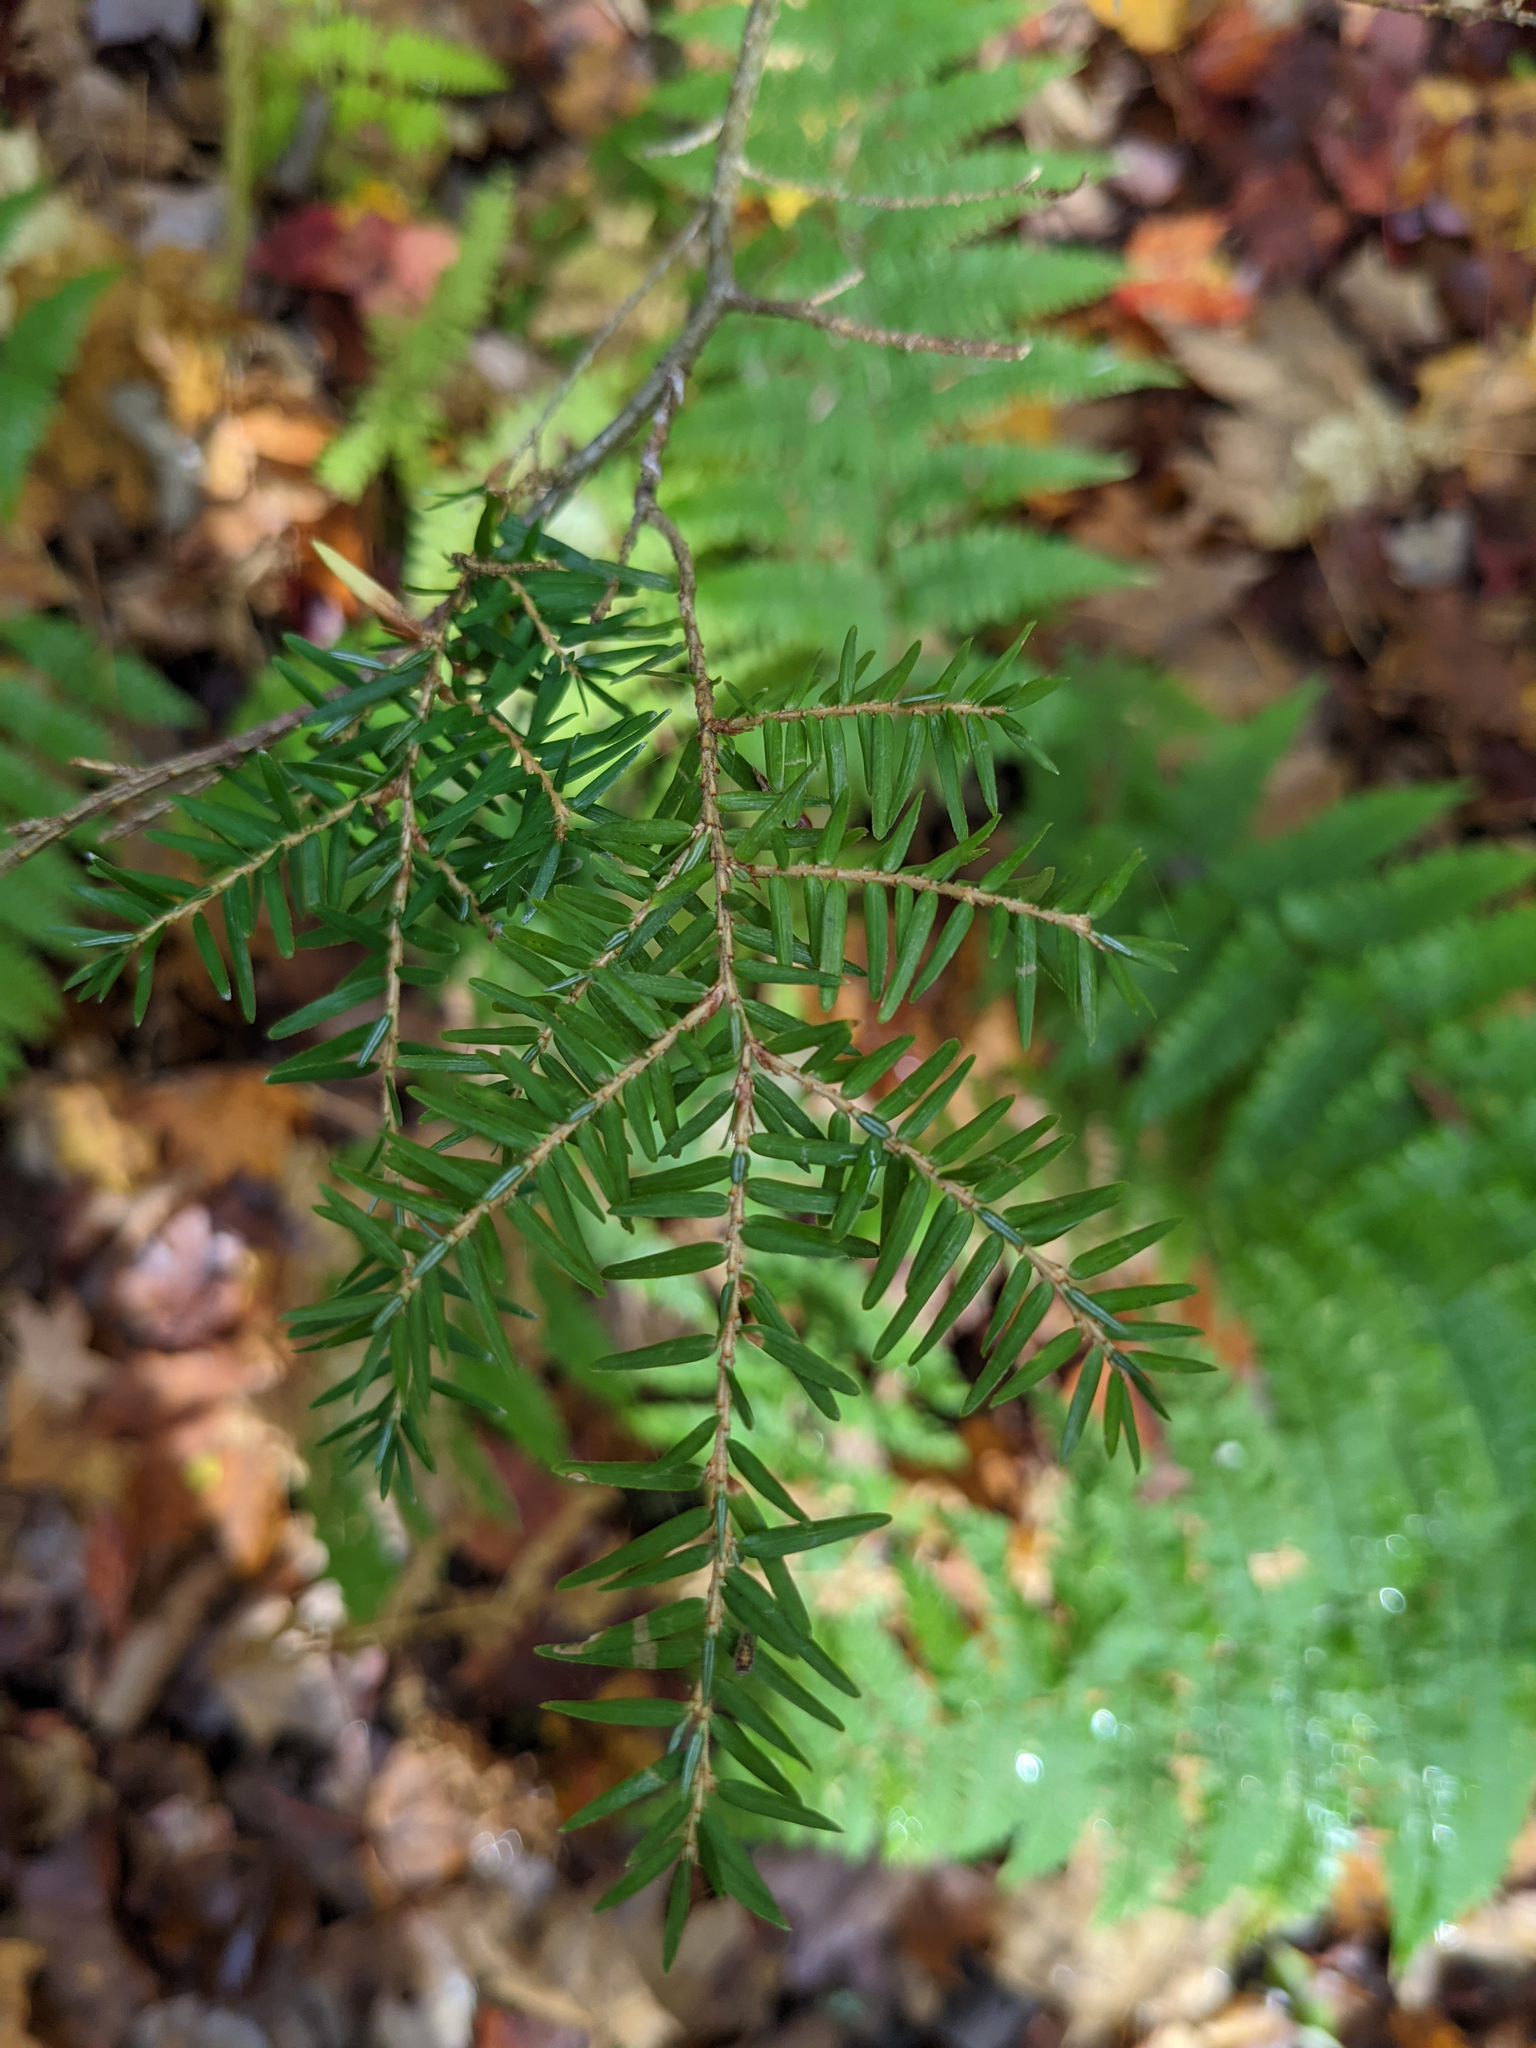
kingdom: Plantae
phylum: Tracheophyta
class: Pinopsida
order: Pinales
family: Pinaceae
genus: Tsuga
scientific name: Tsuga canadensis
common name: Eastern hemlock
